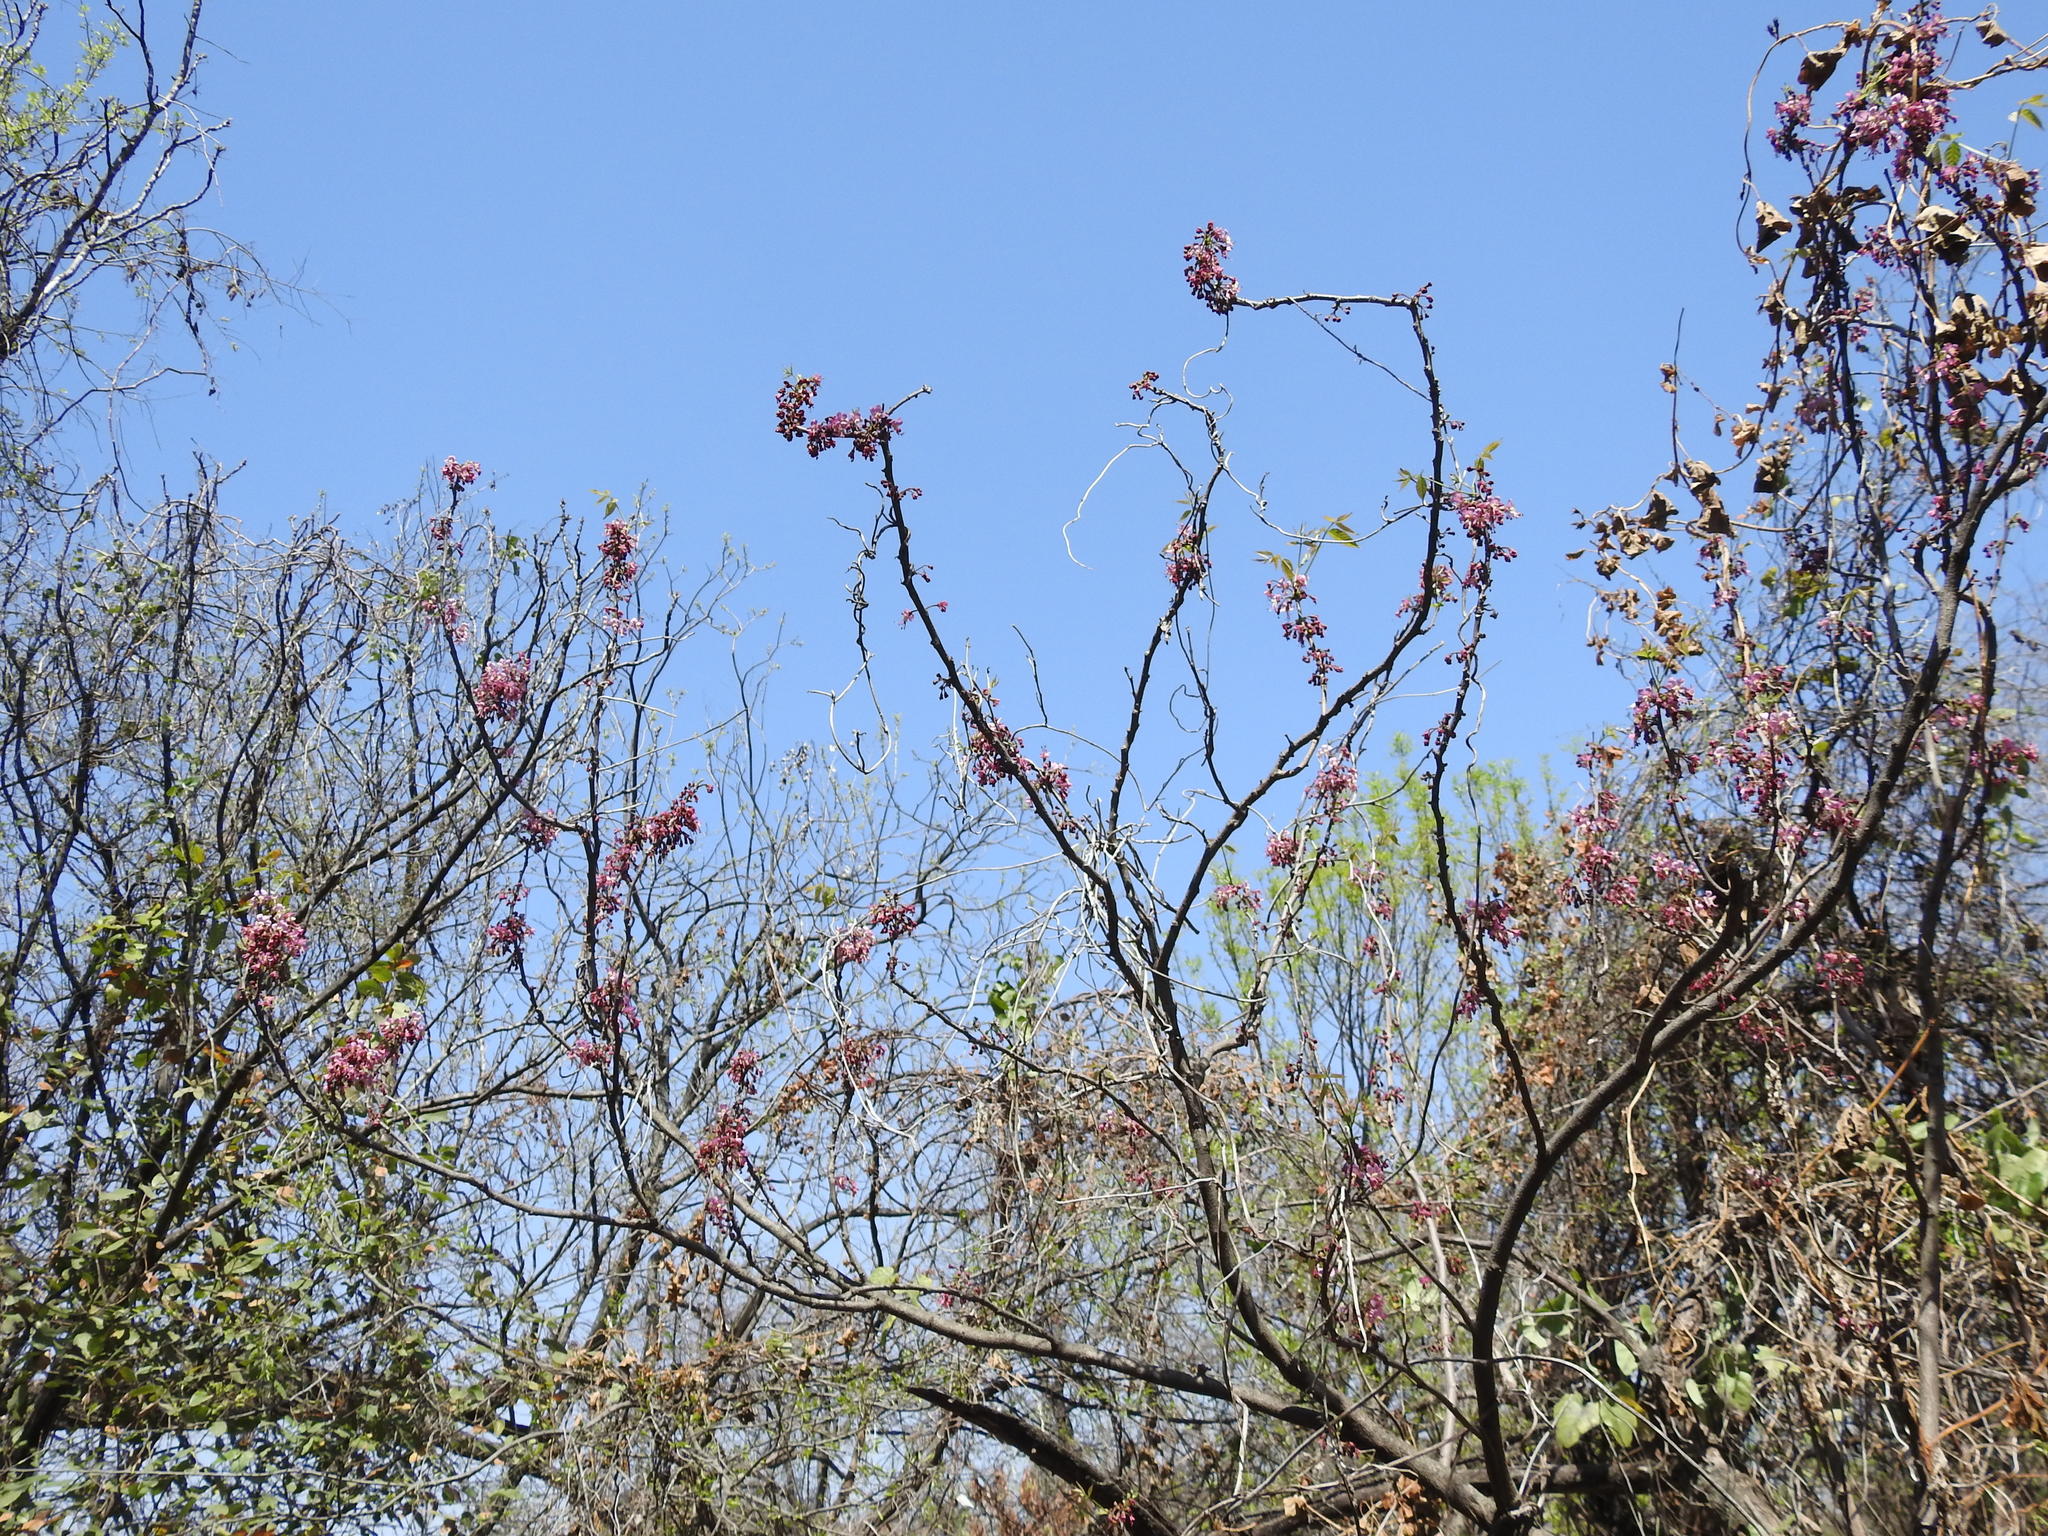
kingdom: Plantae
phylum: Tracheophyta
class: Magnoliopsida
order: Sapindales
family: Sapindaceae
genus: Ungnadia
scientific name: Ungnadia speciosa
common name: Texas-buckeye
